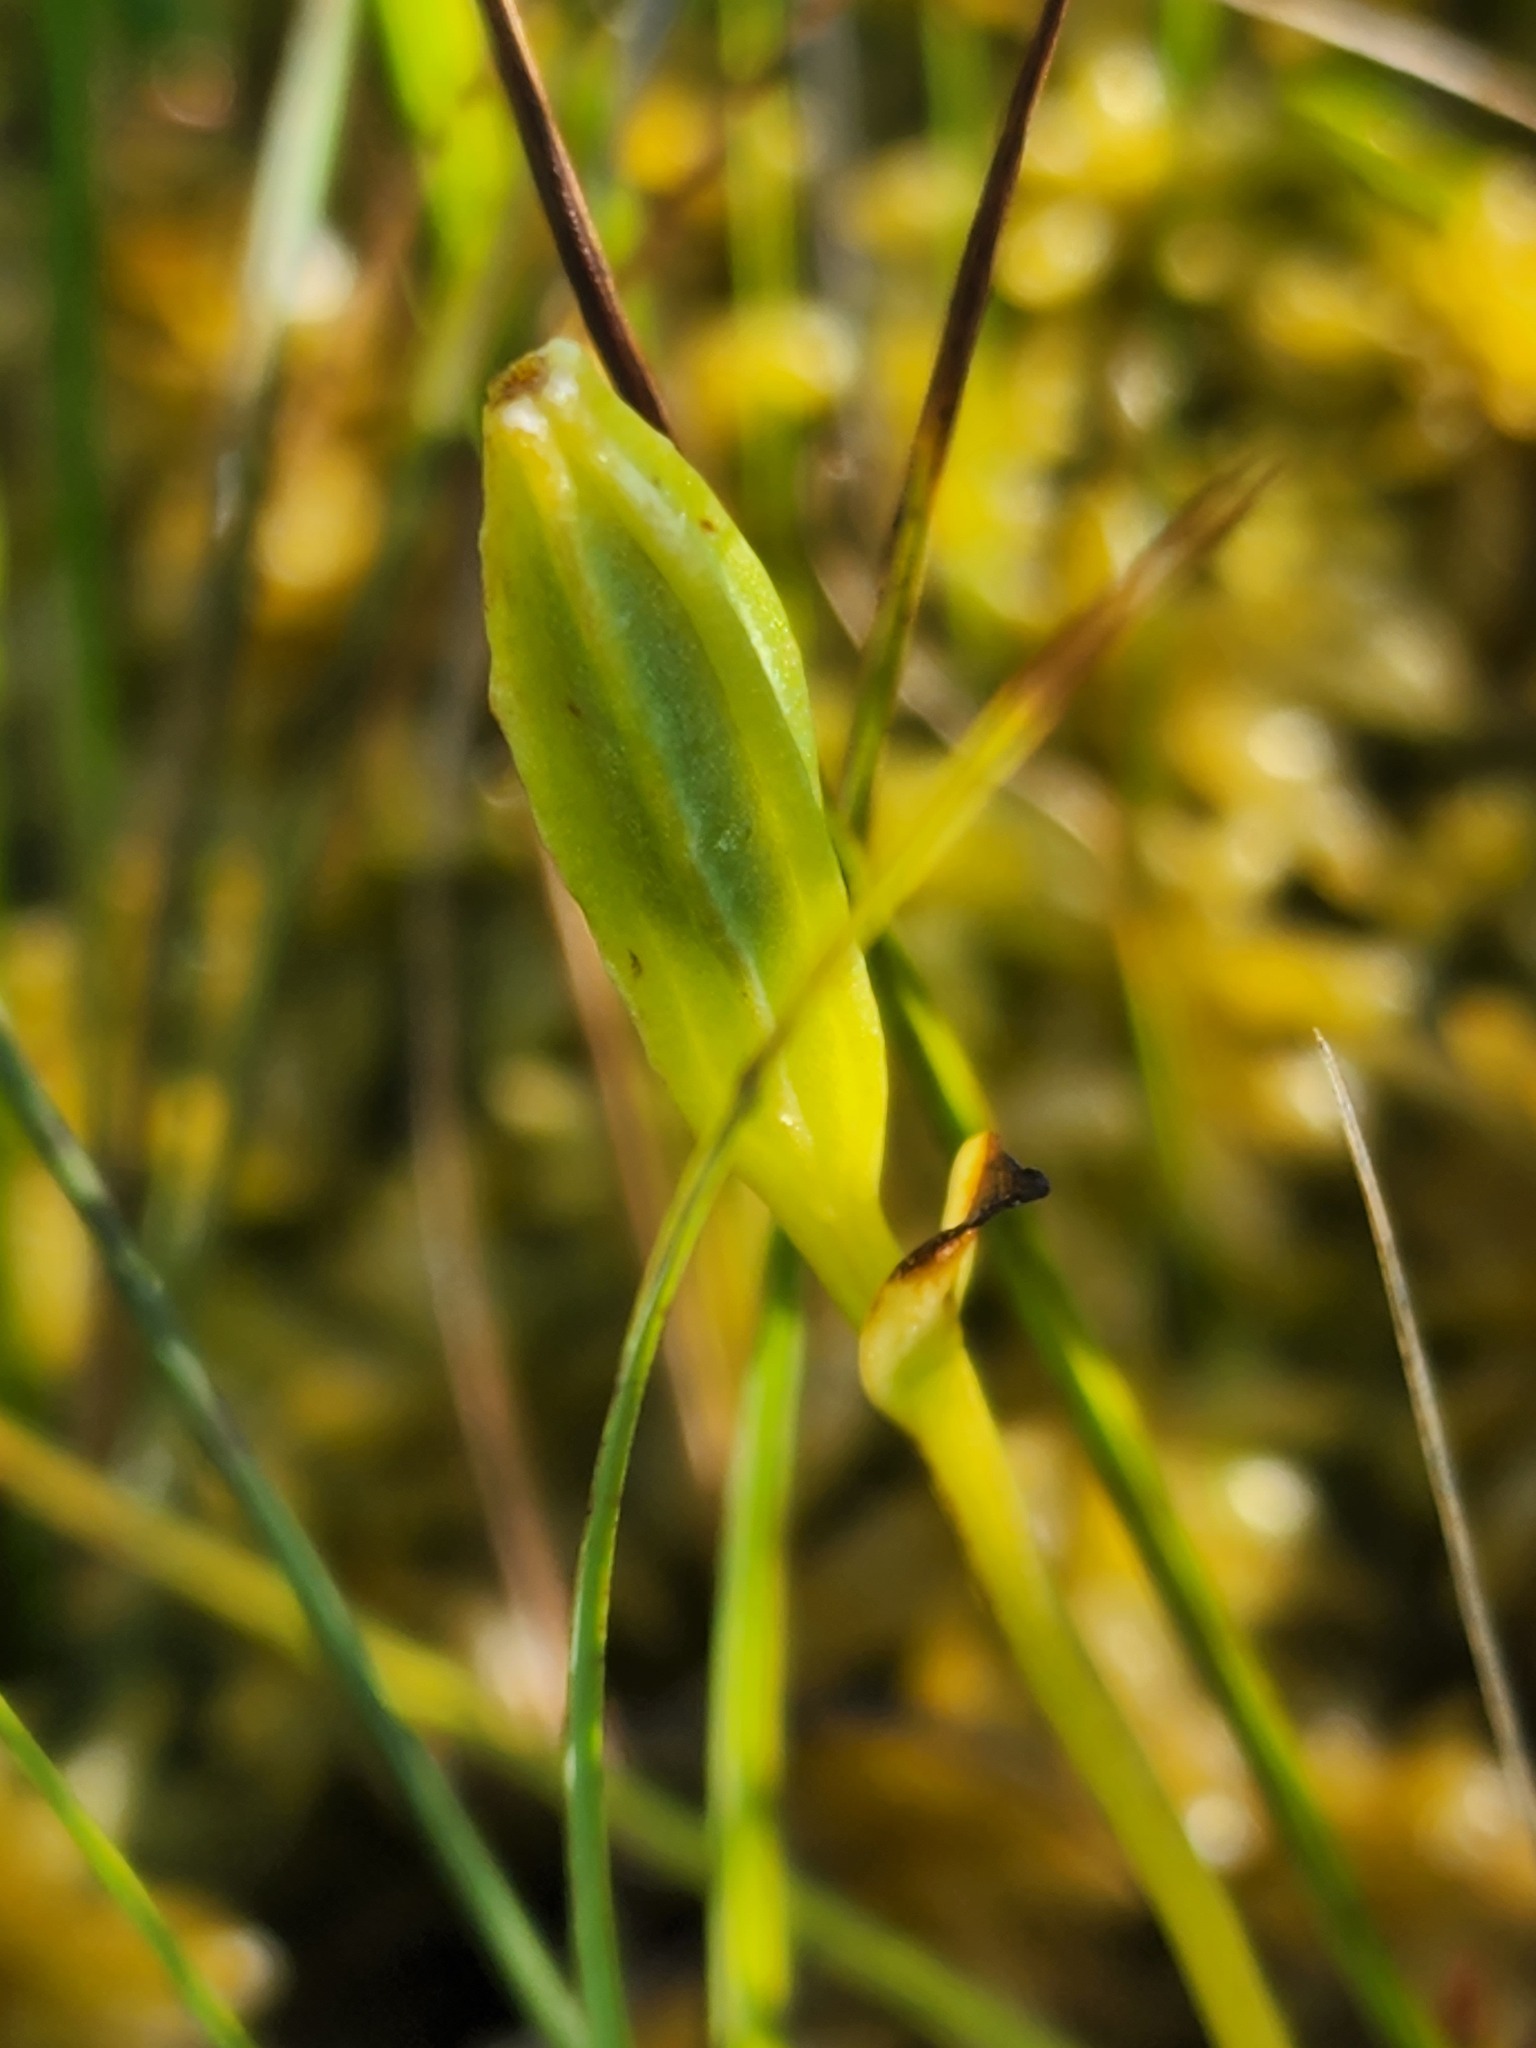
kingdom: Plantae
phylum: Tracheophyta
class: Liliopsida
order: Asparagales
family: Orchidaceae
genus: Pogonia
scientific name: Pogonia ophioglossoides
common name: Rose pogonia
